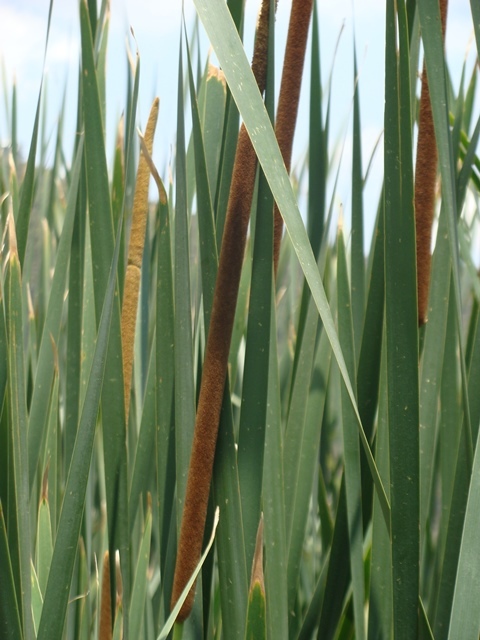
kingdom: Plantae
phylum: Tracheophyta
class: Liliopsida
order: Poales
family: Typhaceae
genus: Typha
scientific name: Typha domingensis
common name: Southern cattail
